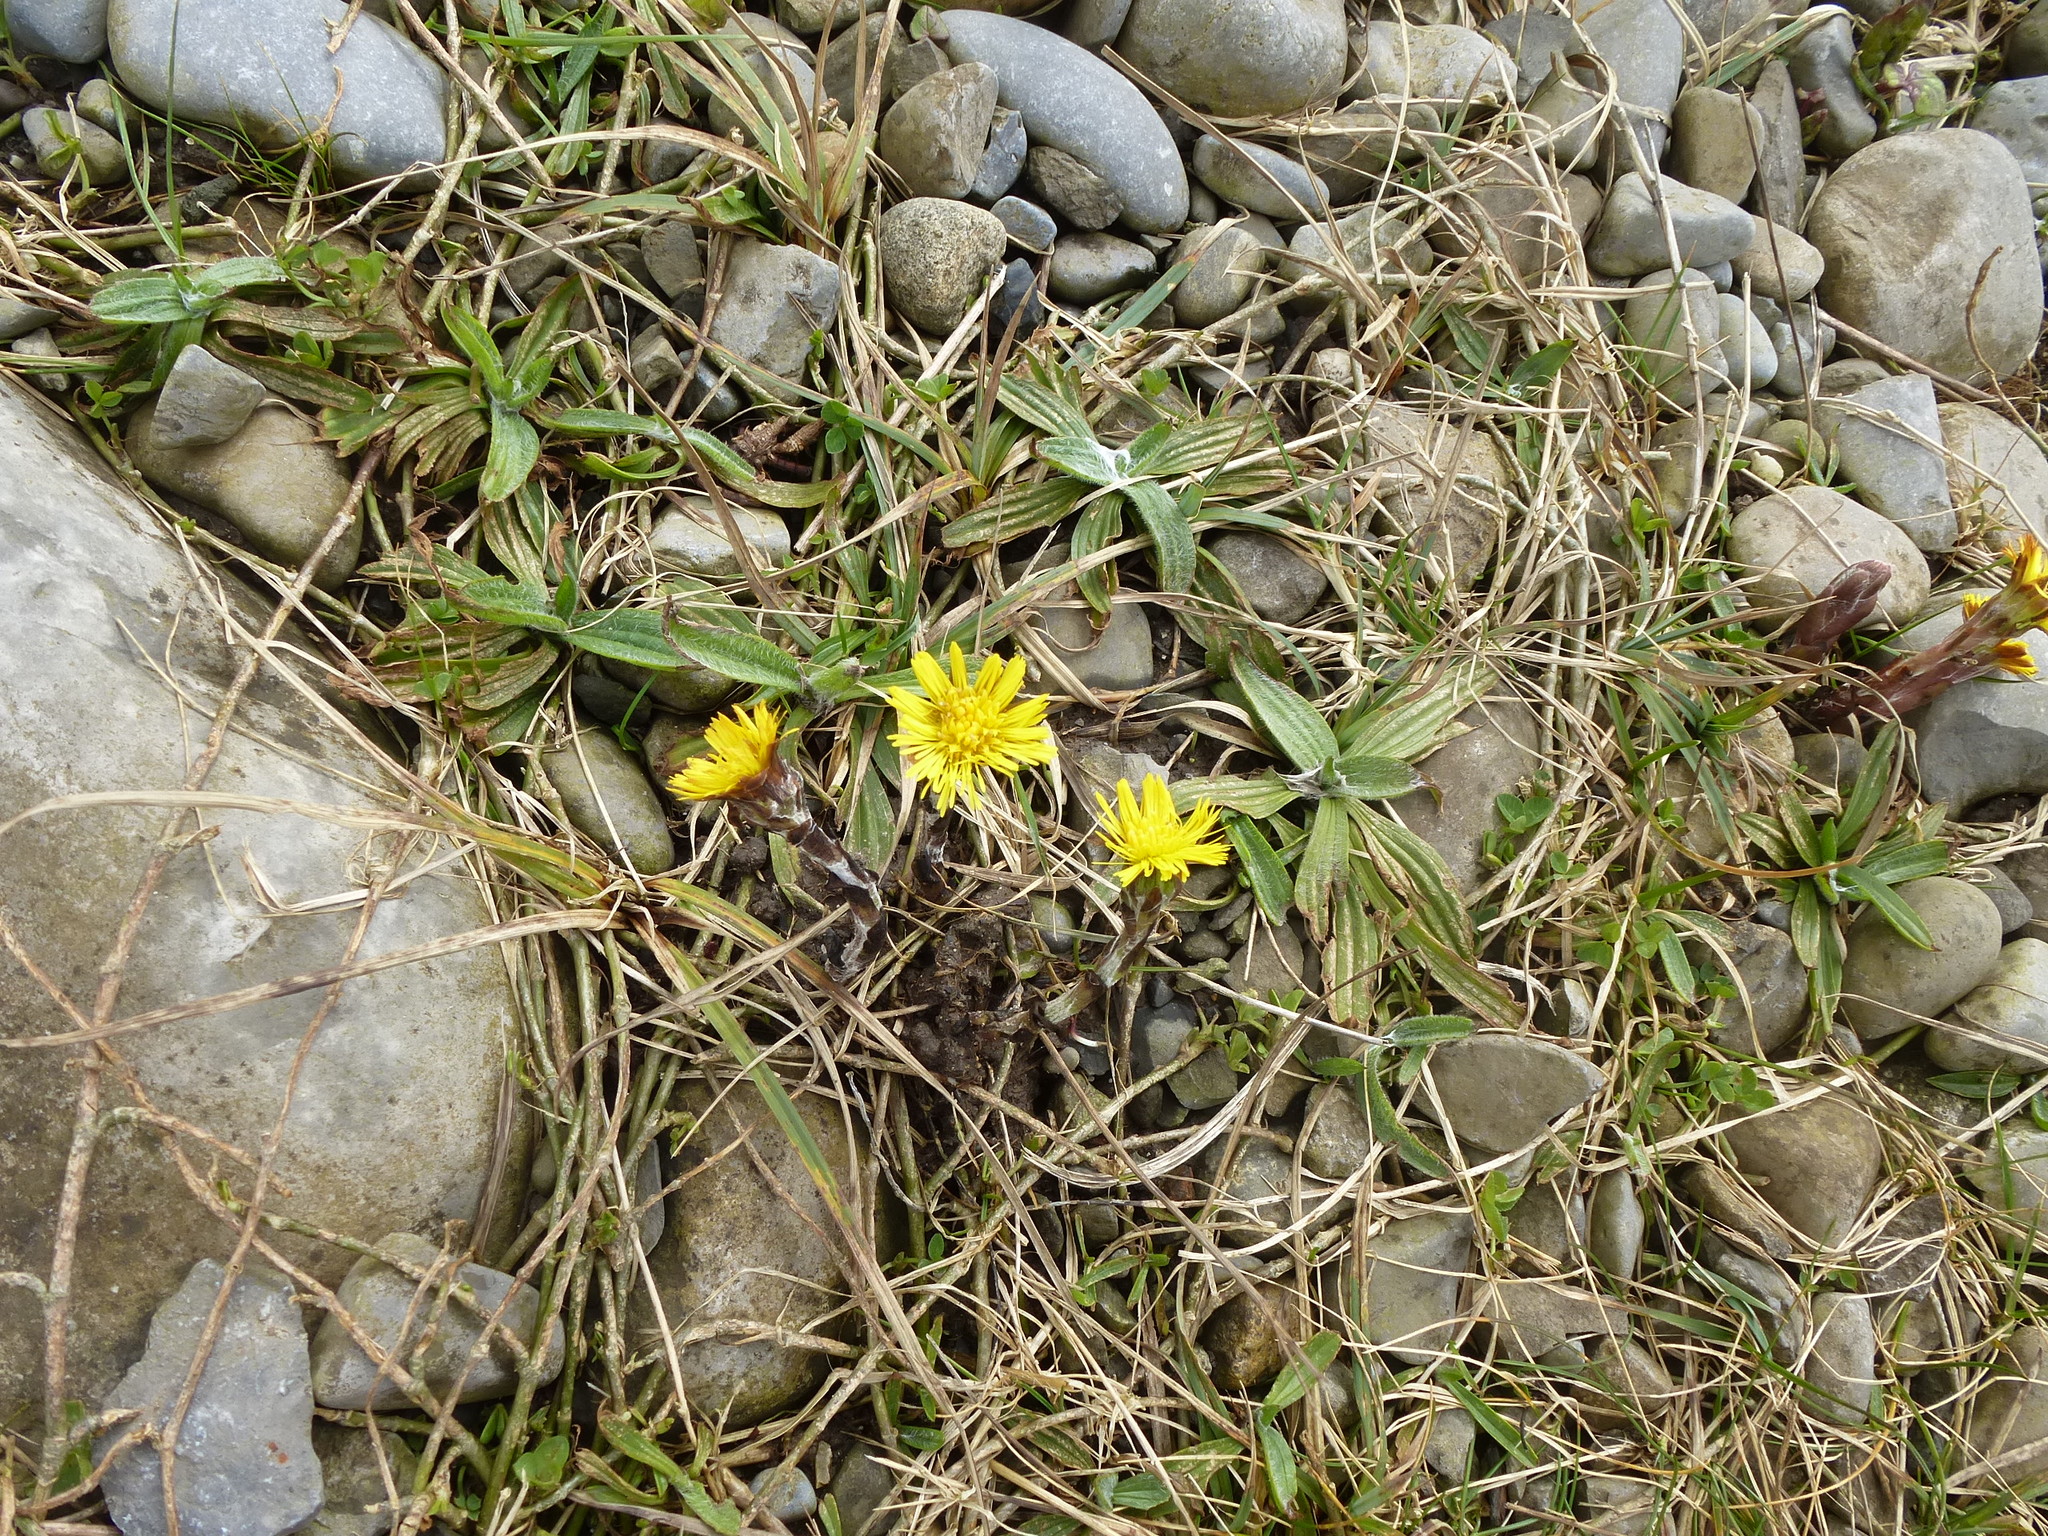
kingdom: Plantae
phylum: Tracheophyta
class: Magnoliopsida
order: Asterales
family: Asteraceae
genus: Tussilago
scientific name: Tussilago farfara
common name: Coltsfoot
